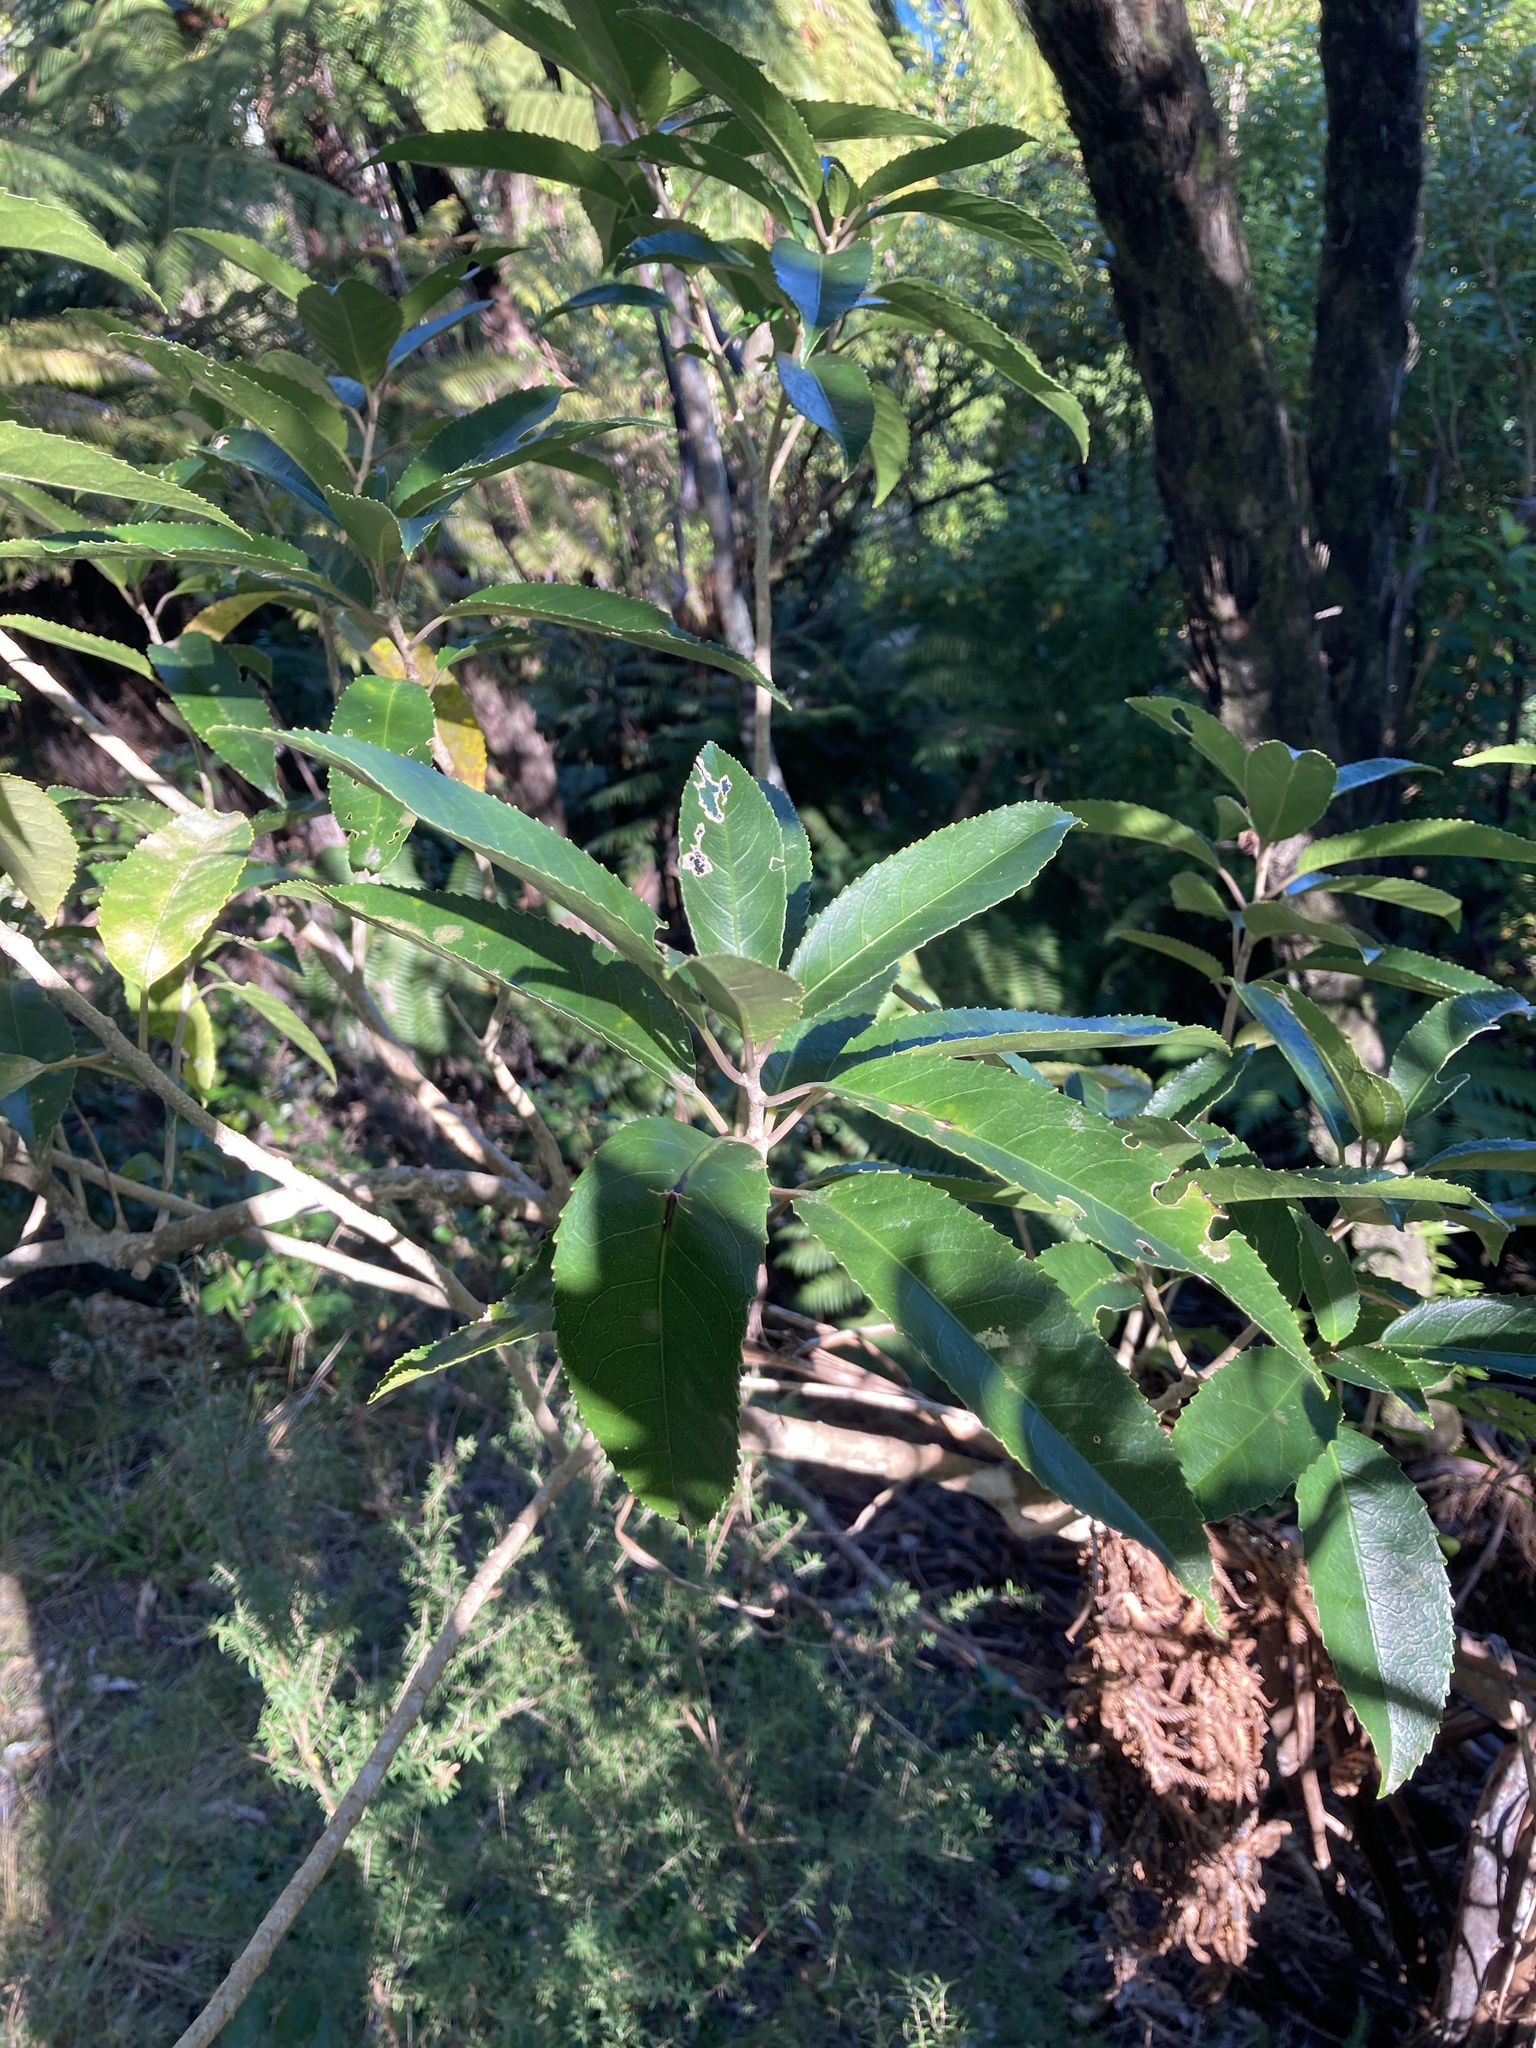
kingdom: Plantae
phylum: Tracheophyta
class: Magnoliopsida
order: Malpighiales
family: Violaceae
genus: Melicytus
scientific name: Melicytus ramiflorus
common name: Mahoe
